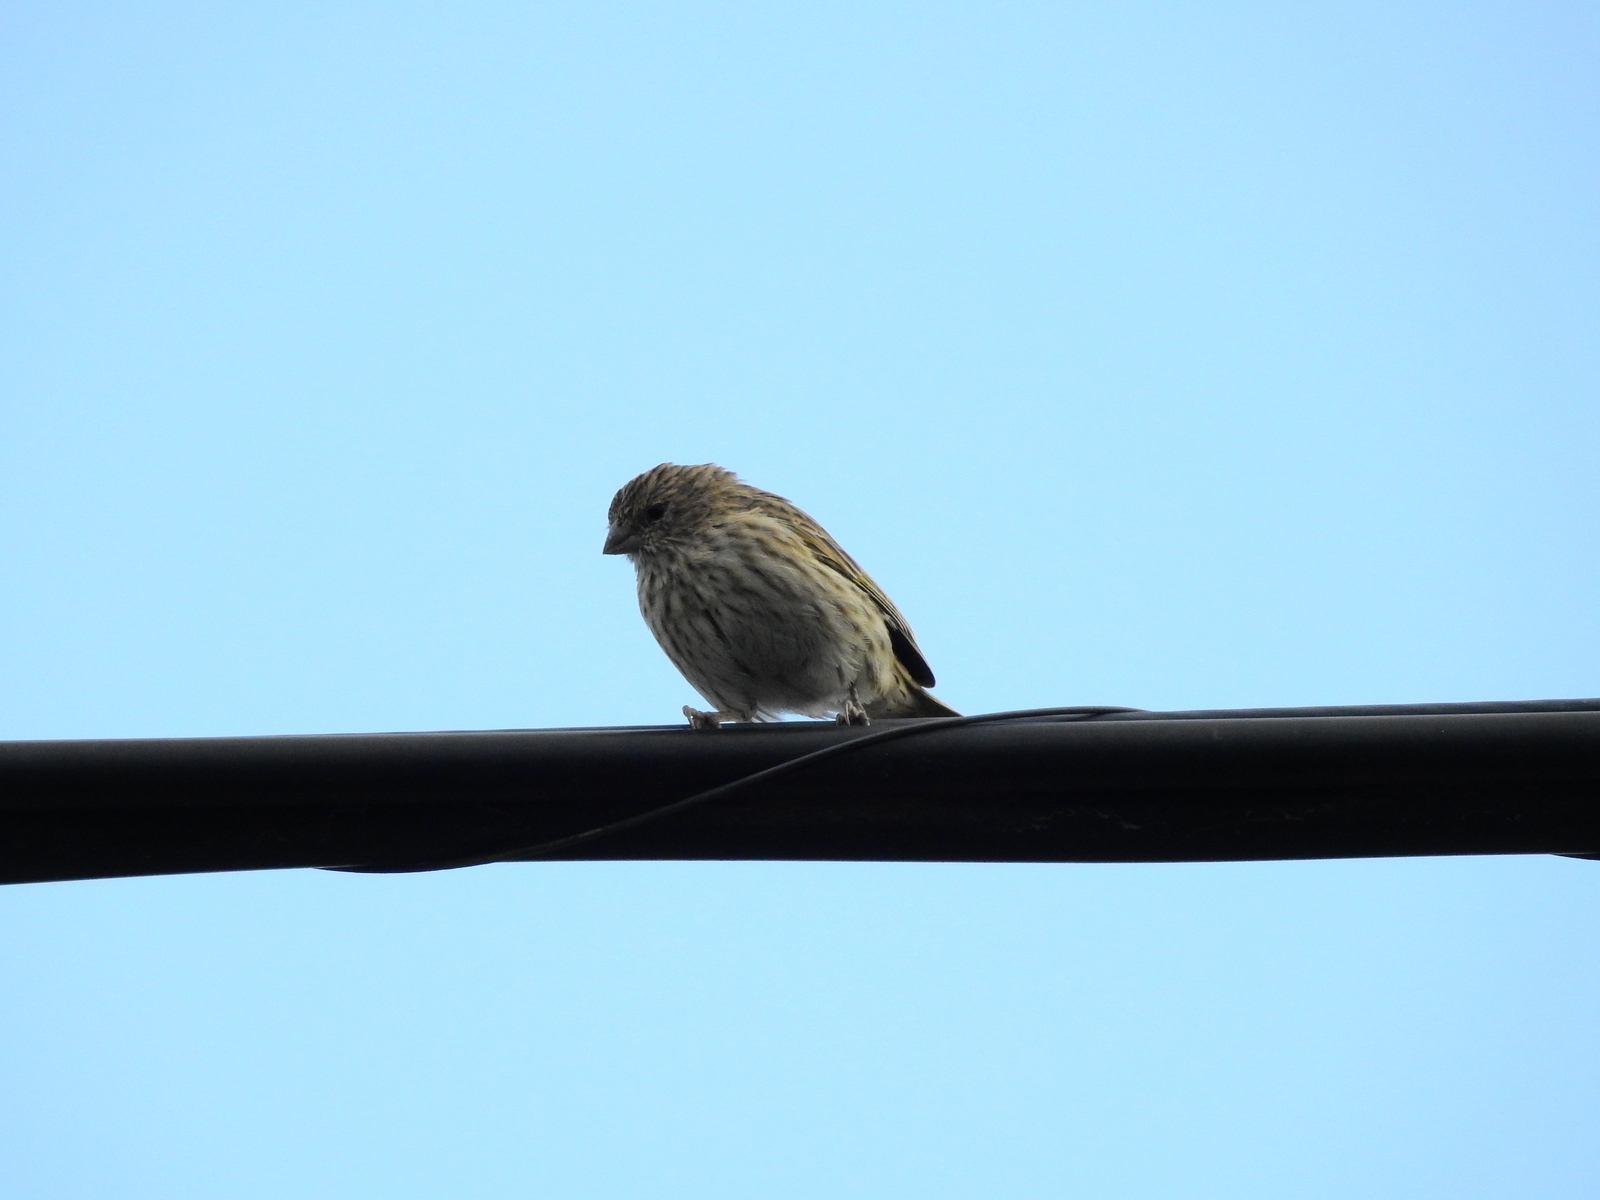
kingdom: Animalia
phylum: Chordata
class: Aves
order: Passeriformes
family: Thraupidae
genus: Sicalis
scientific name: Sicalis flaveola
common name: Saffron finch
